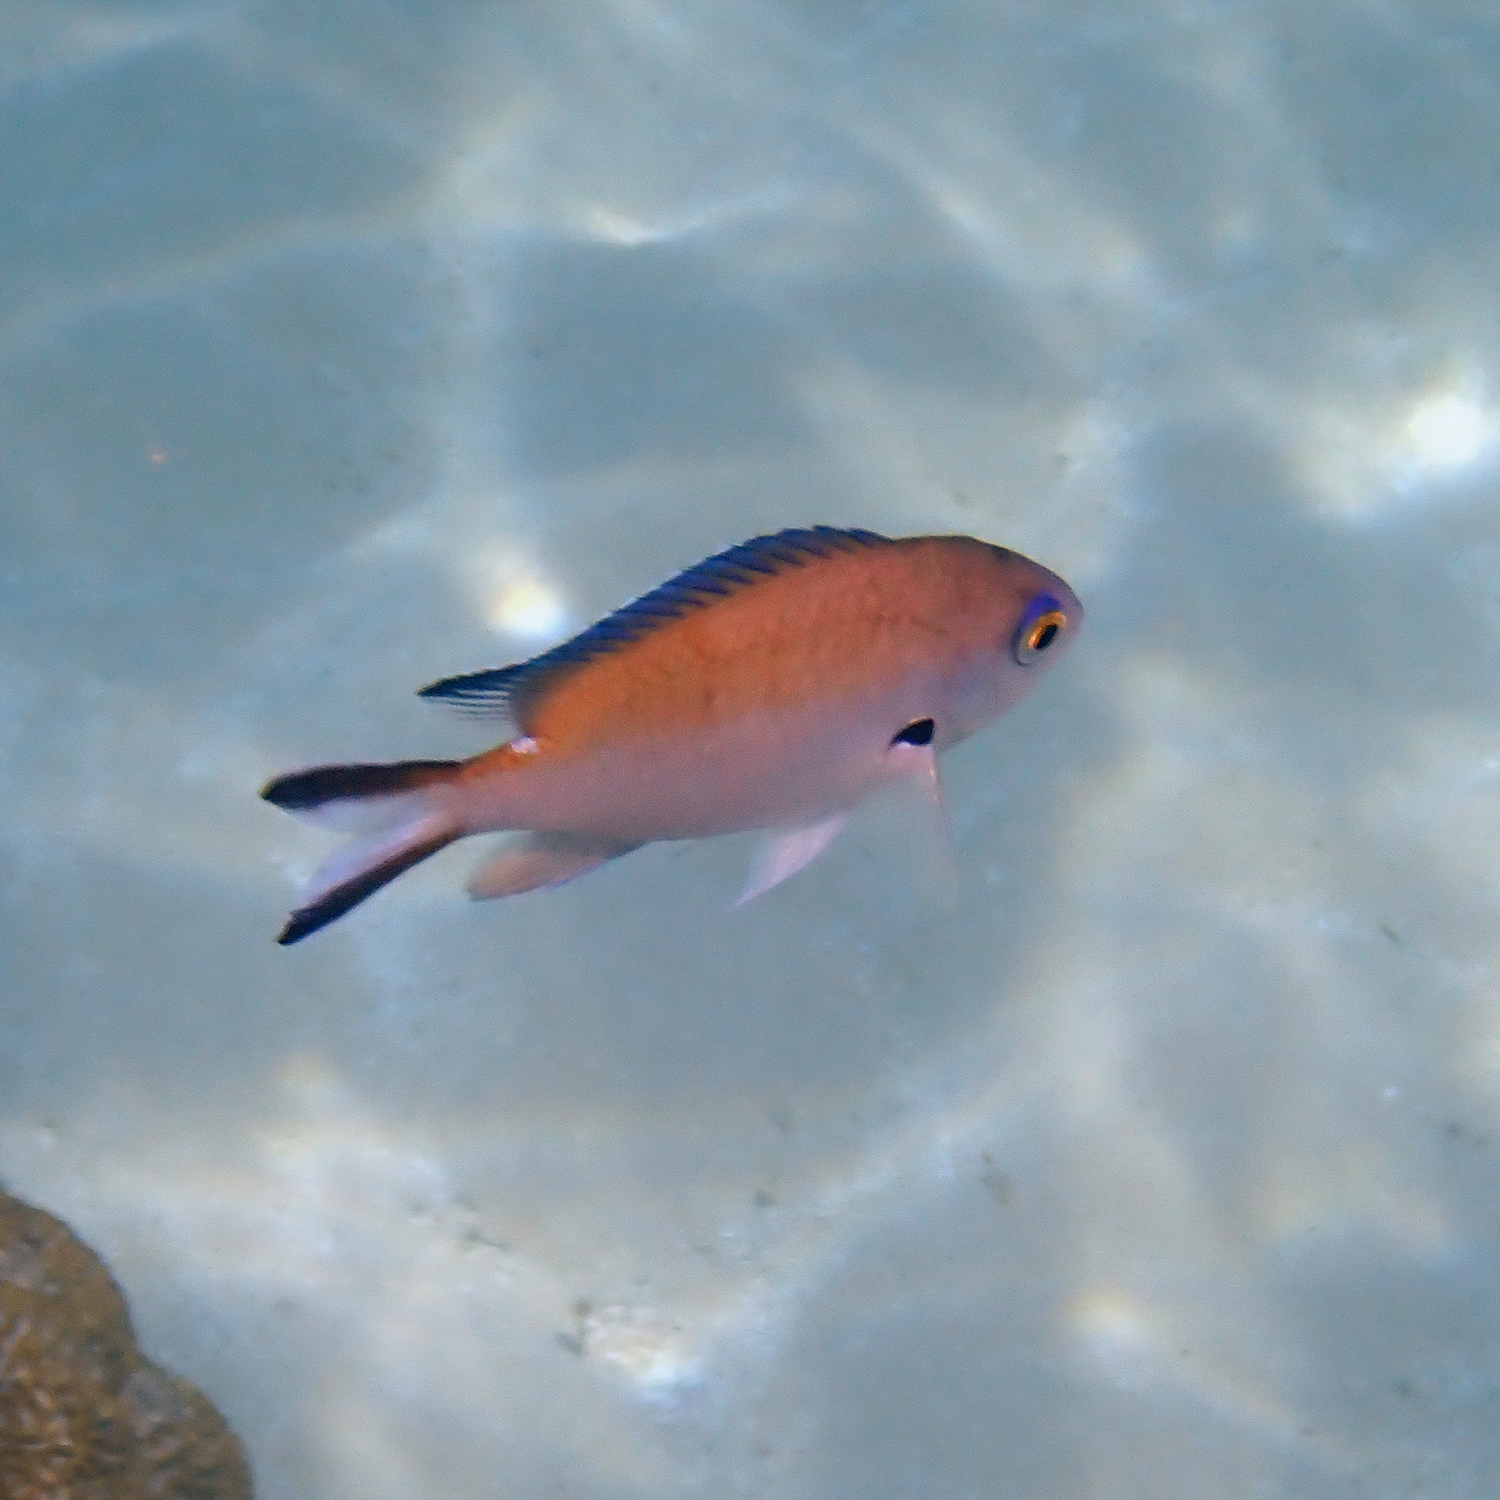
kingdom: Animalia
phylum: Chordata
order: Perciformes
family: Pomacentridae
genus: Chromis
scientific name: Chromis norfolkensis
